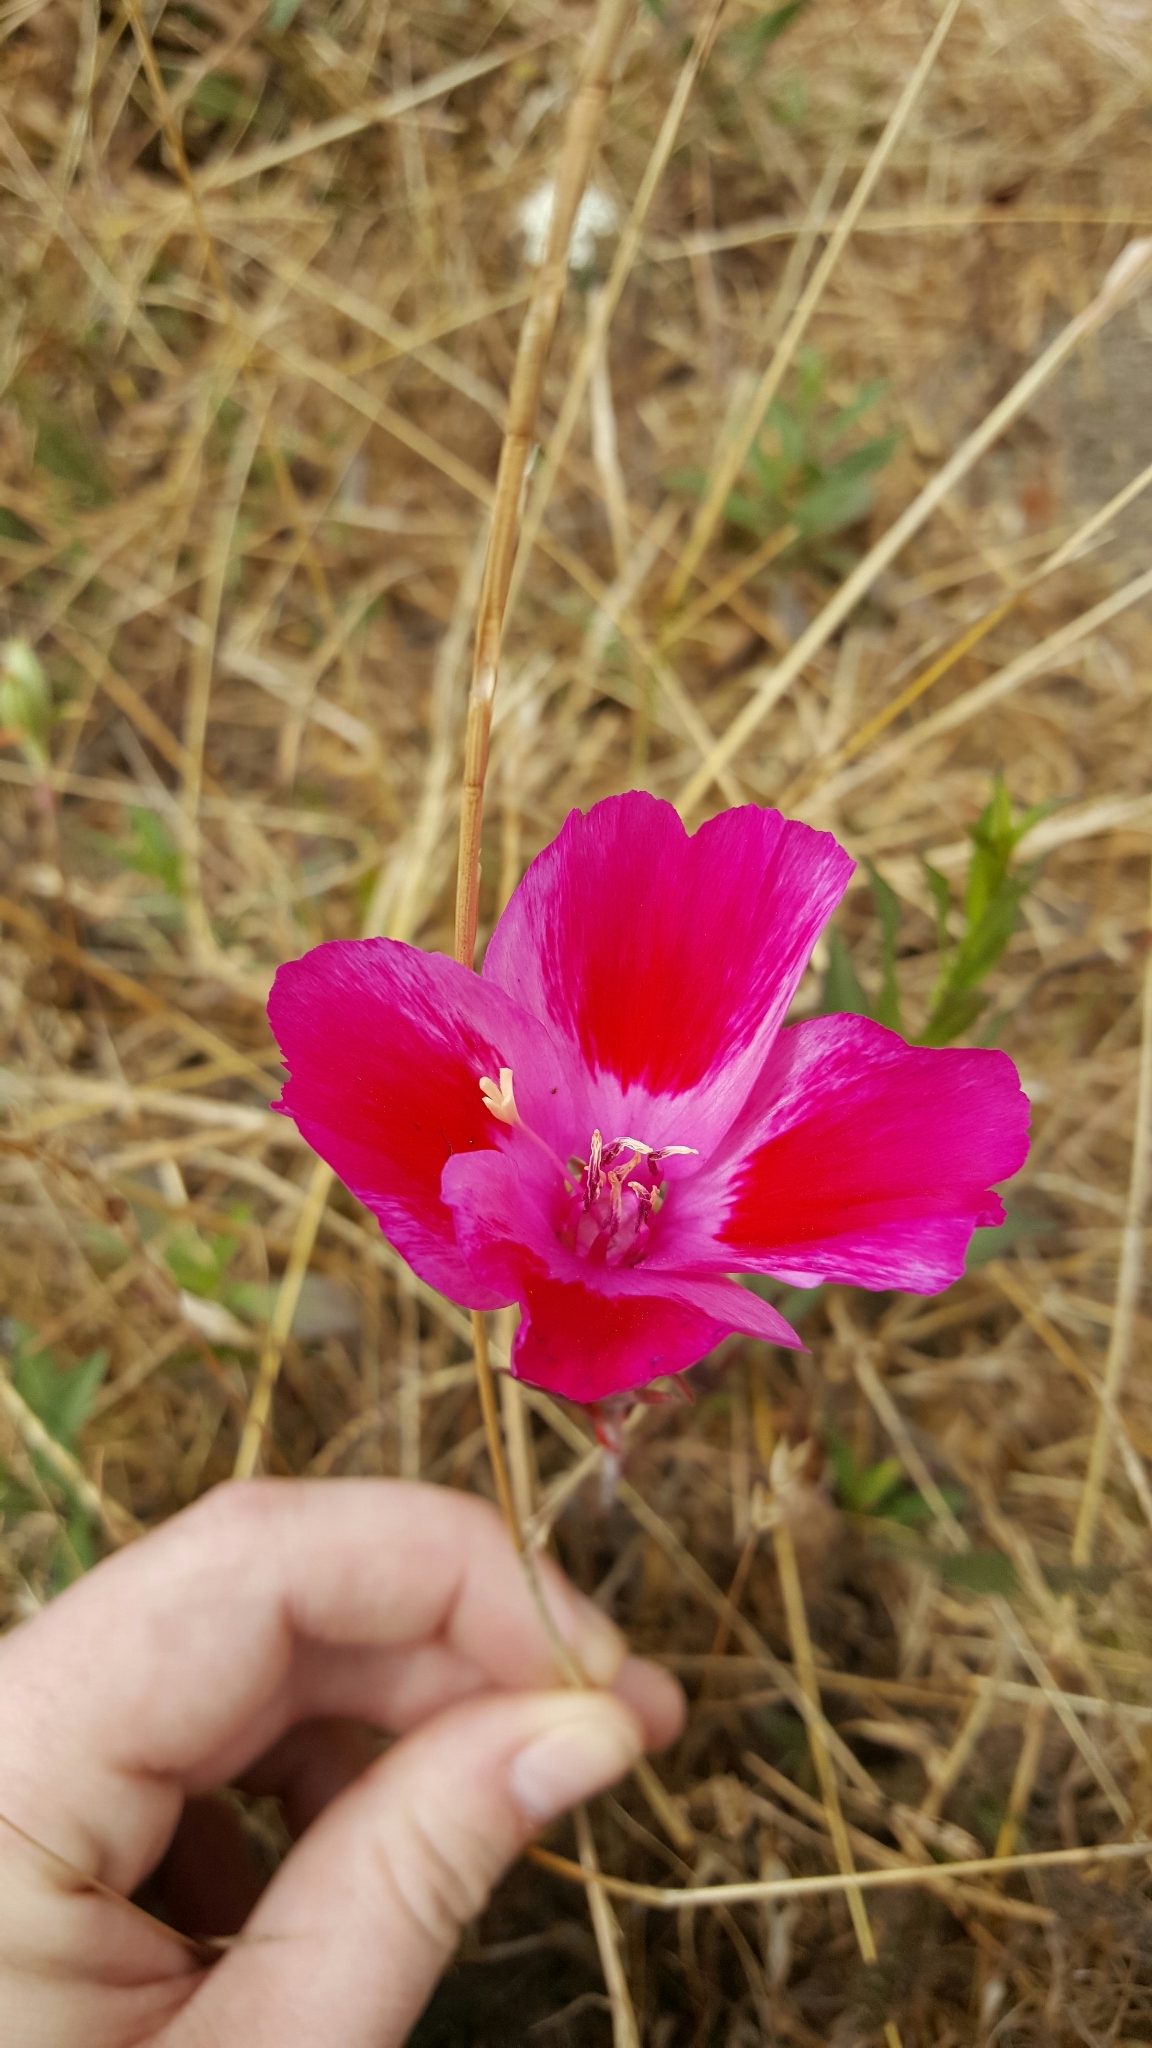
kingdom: Plantae
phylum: Tracheophyta
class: Magnoliopsida
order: Myrtales
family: Onagraceae
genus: Clarkia
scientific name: Clarkia amoena
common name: Godetia
